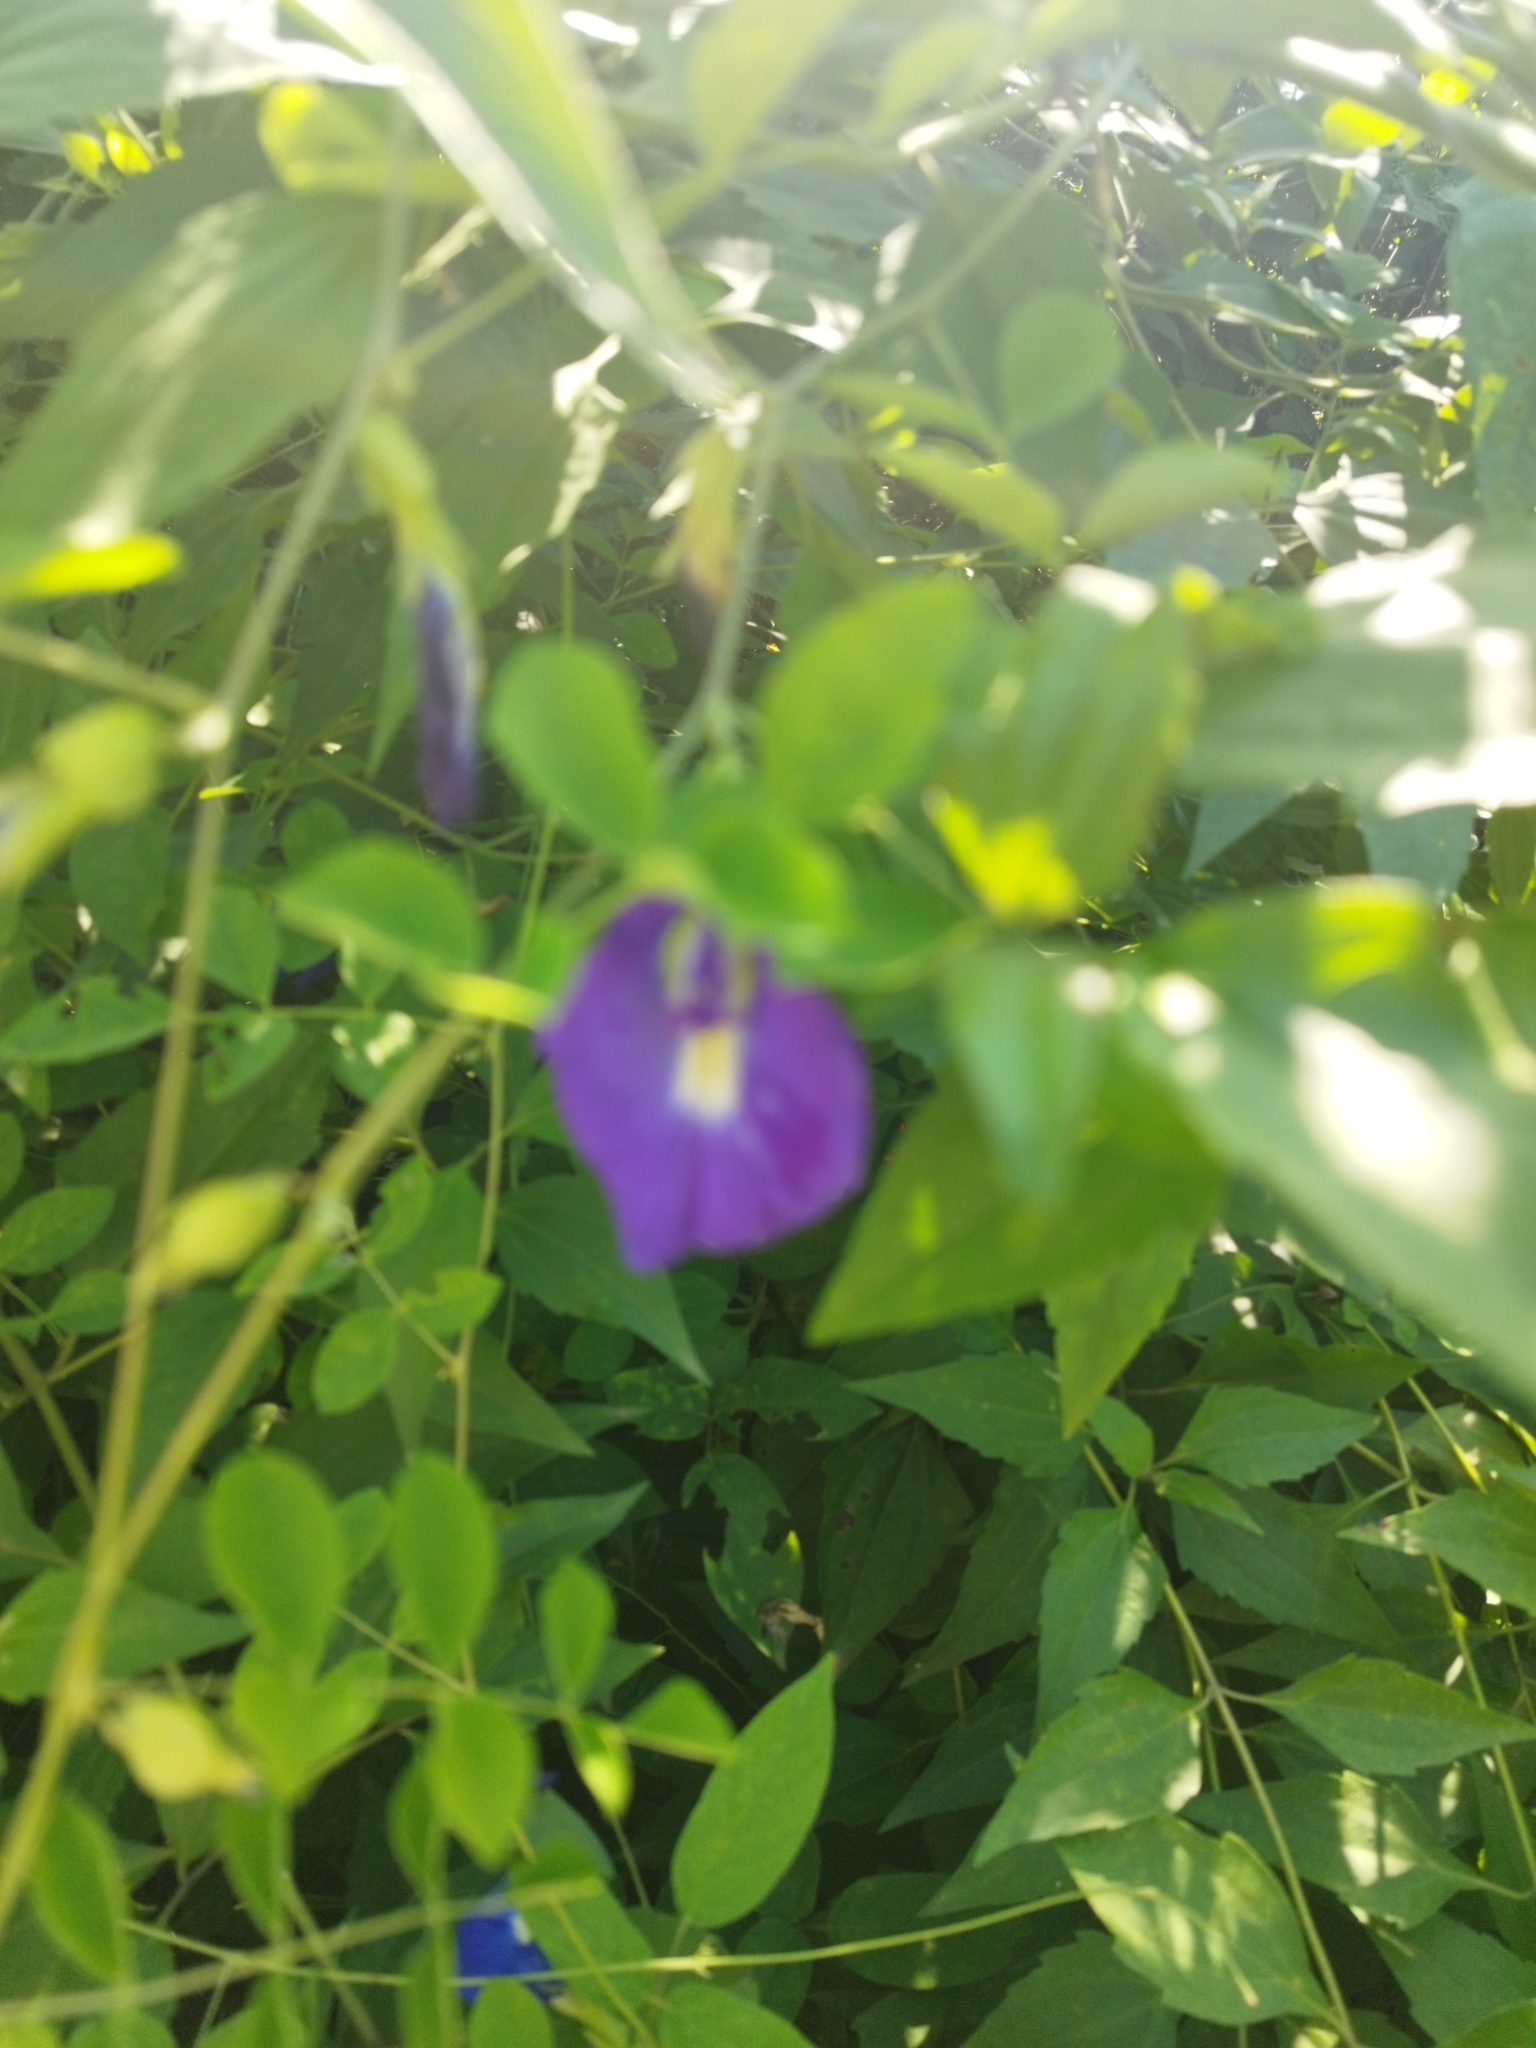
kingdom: Plantae
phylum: Tracheophyta
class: Magnoliopsida
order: Fabales
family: Fabaceae
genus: Clitoria
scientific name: Clitoria ternatea
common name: Asian pigeonwings
